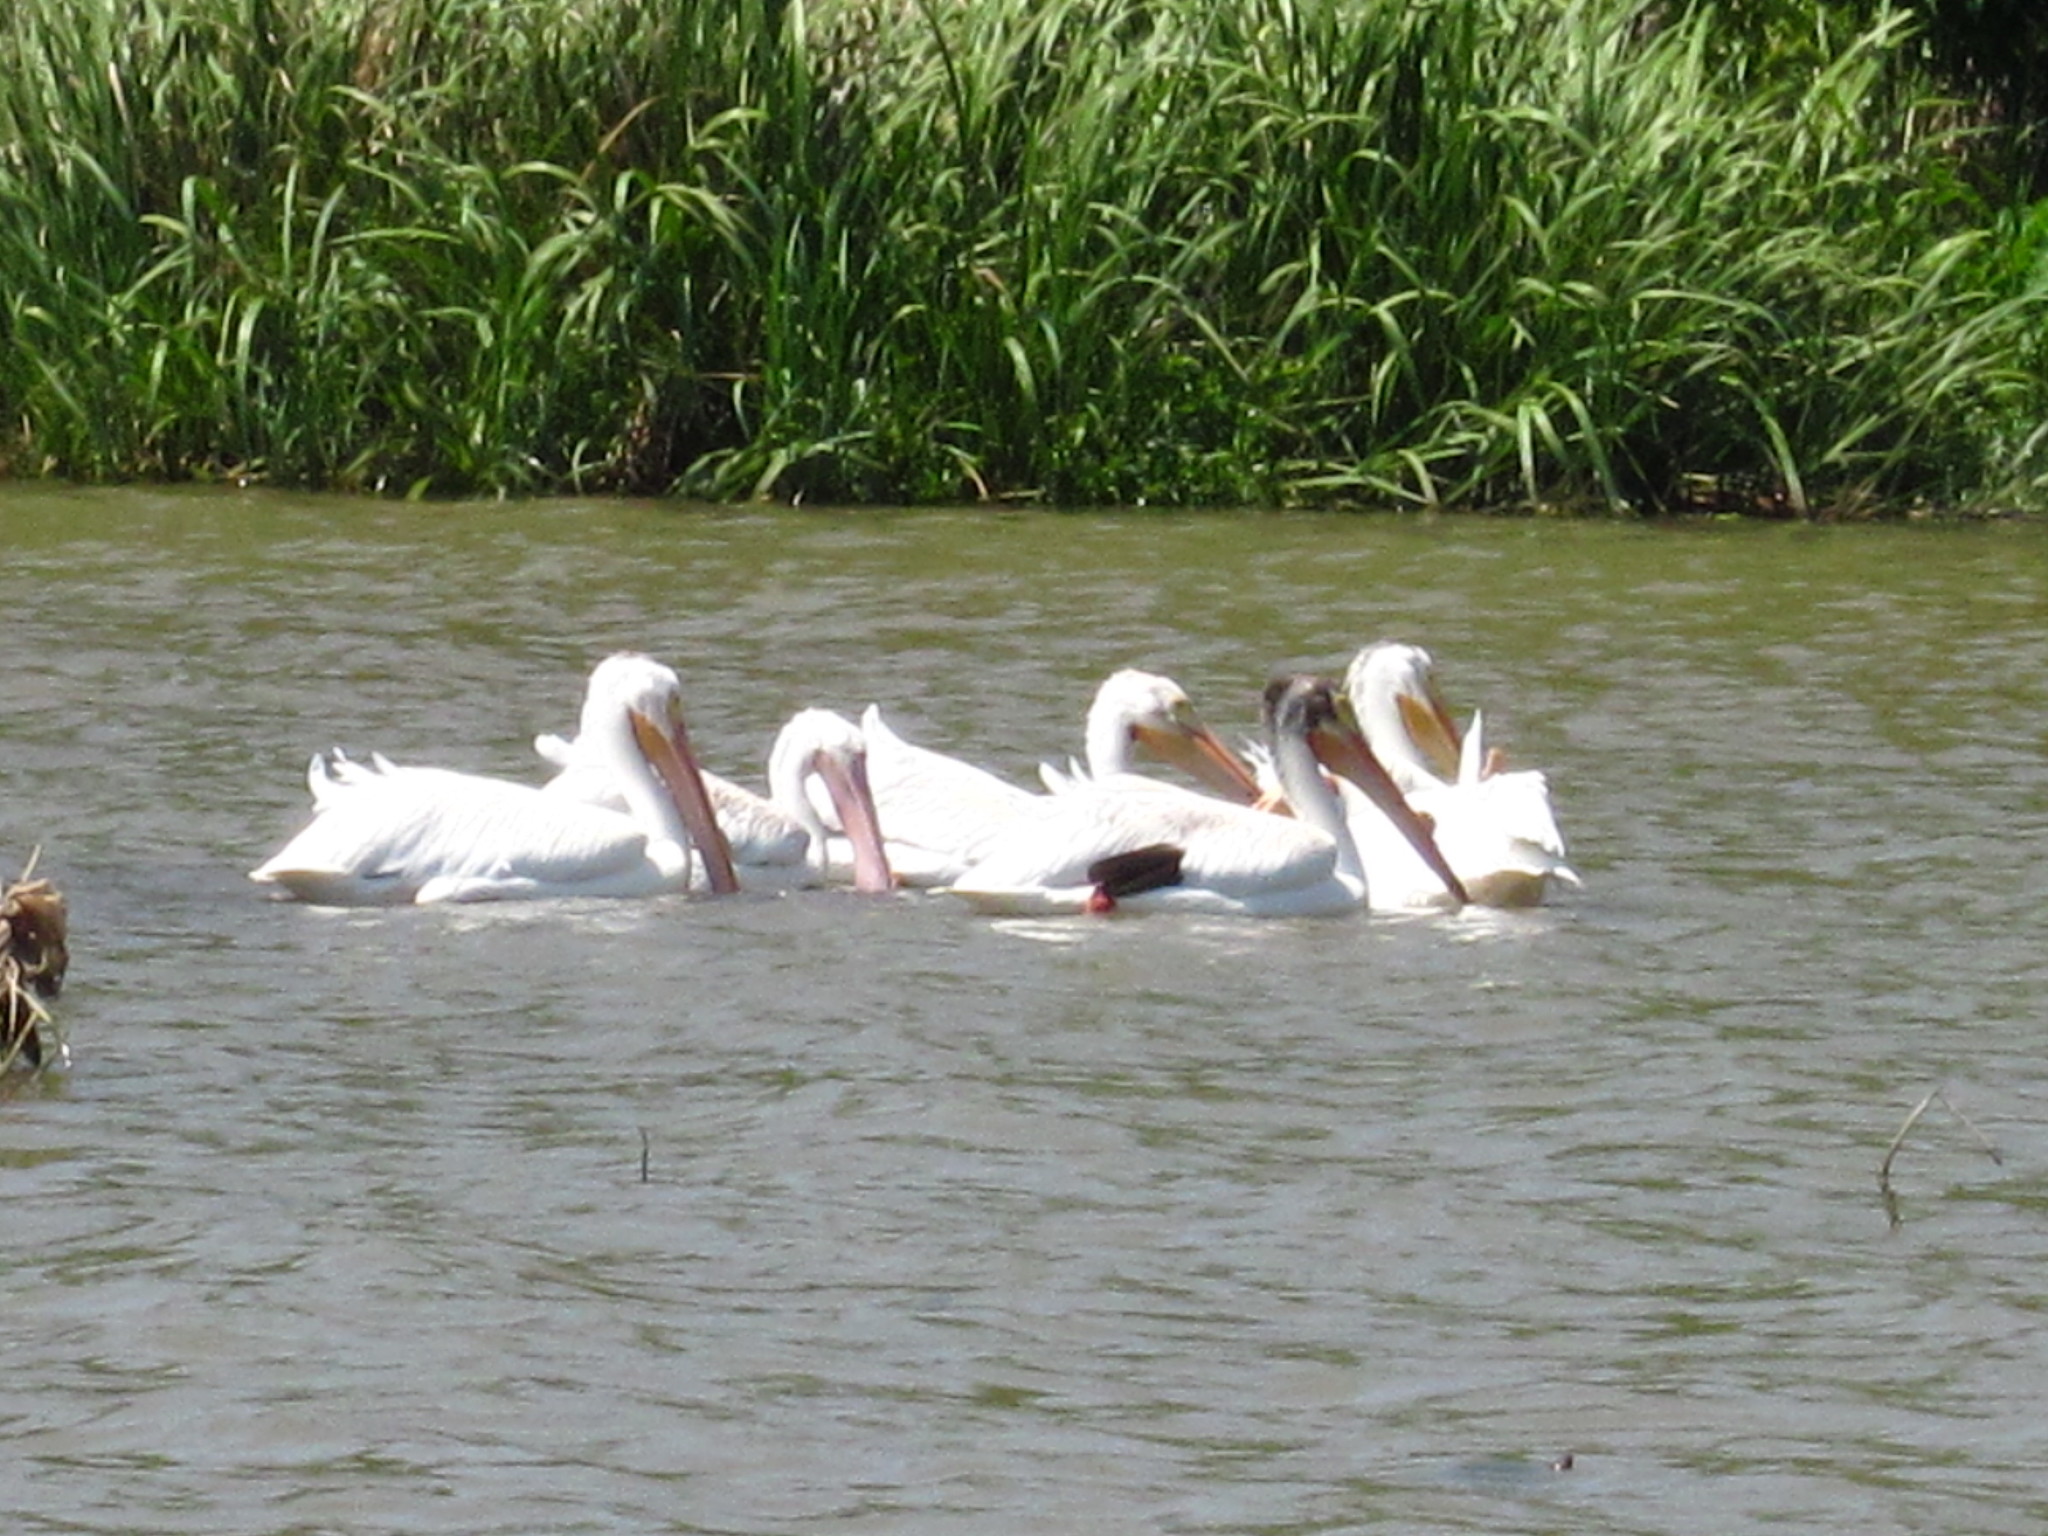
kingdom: Animalia
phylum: Chordata
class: Aves
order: Pelecaniformes
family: Pelecanidae
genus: Pelecanus
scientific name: Pelecanus erythrorhynchos
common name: American white pelican
